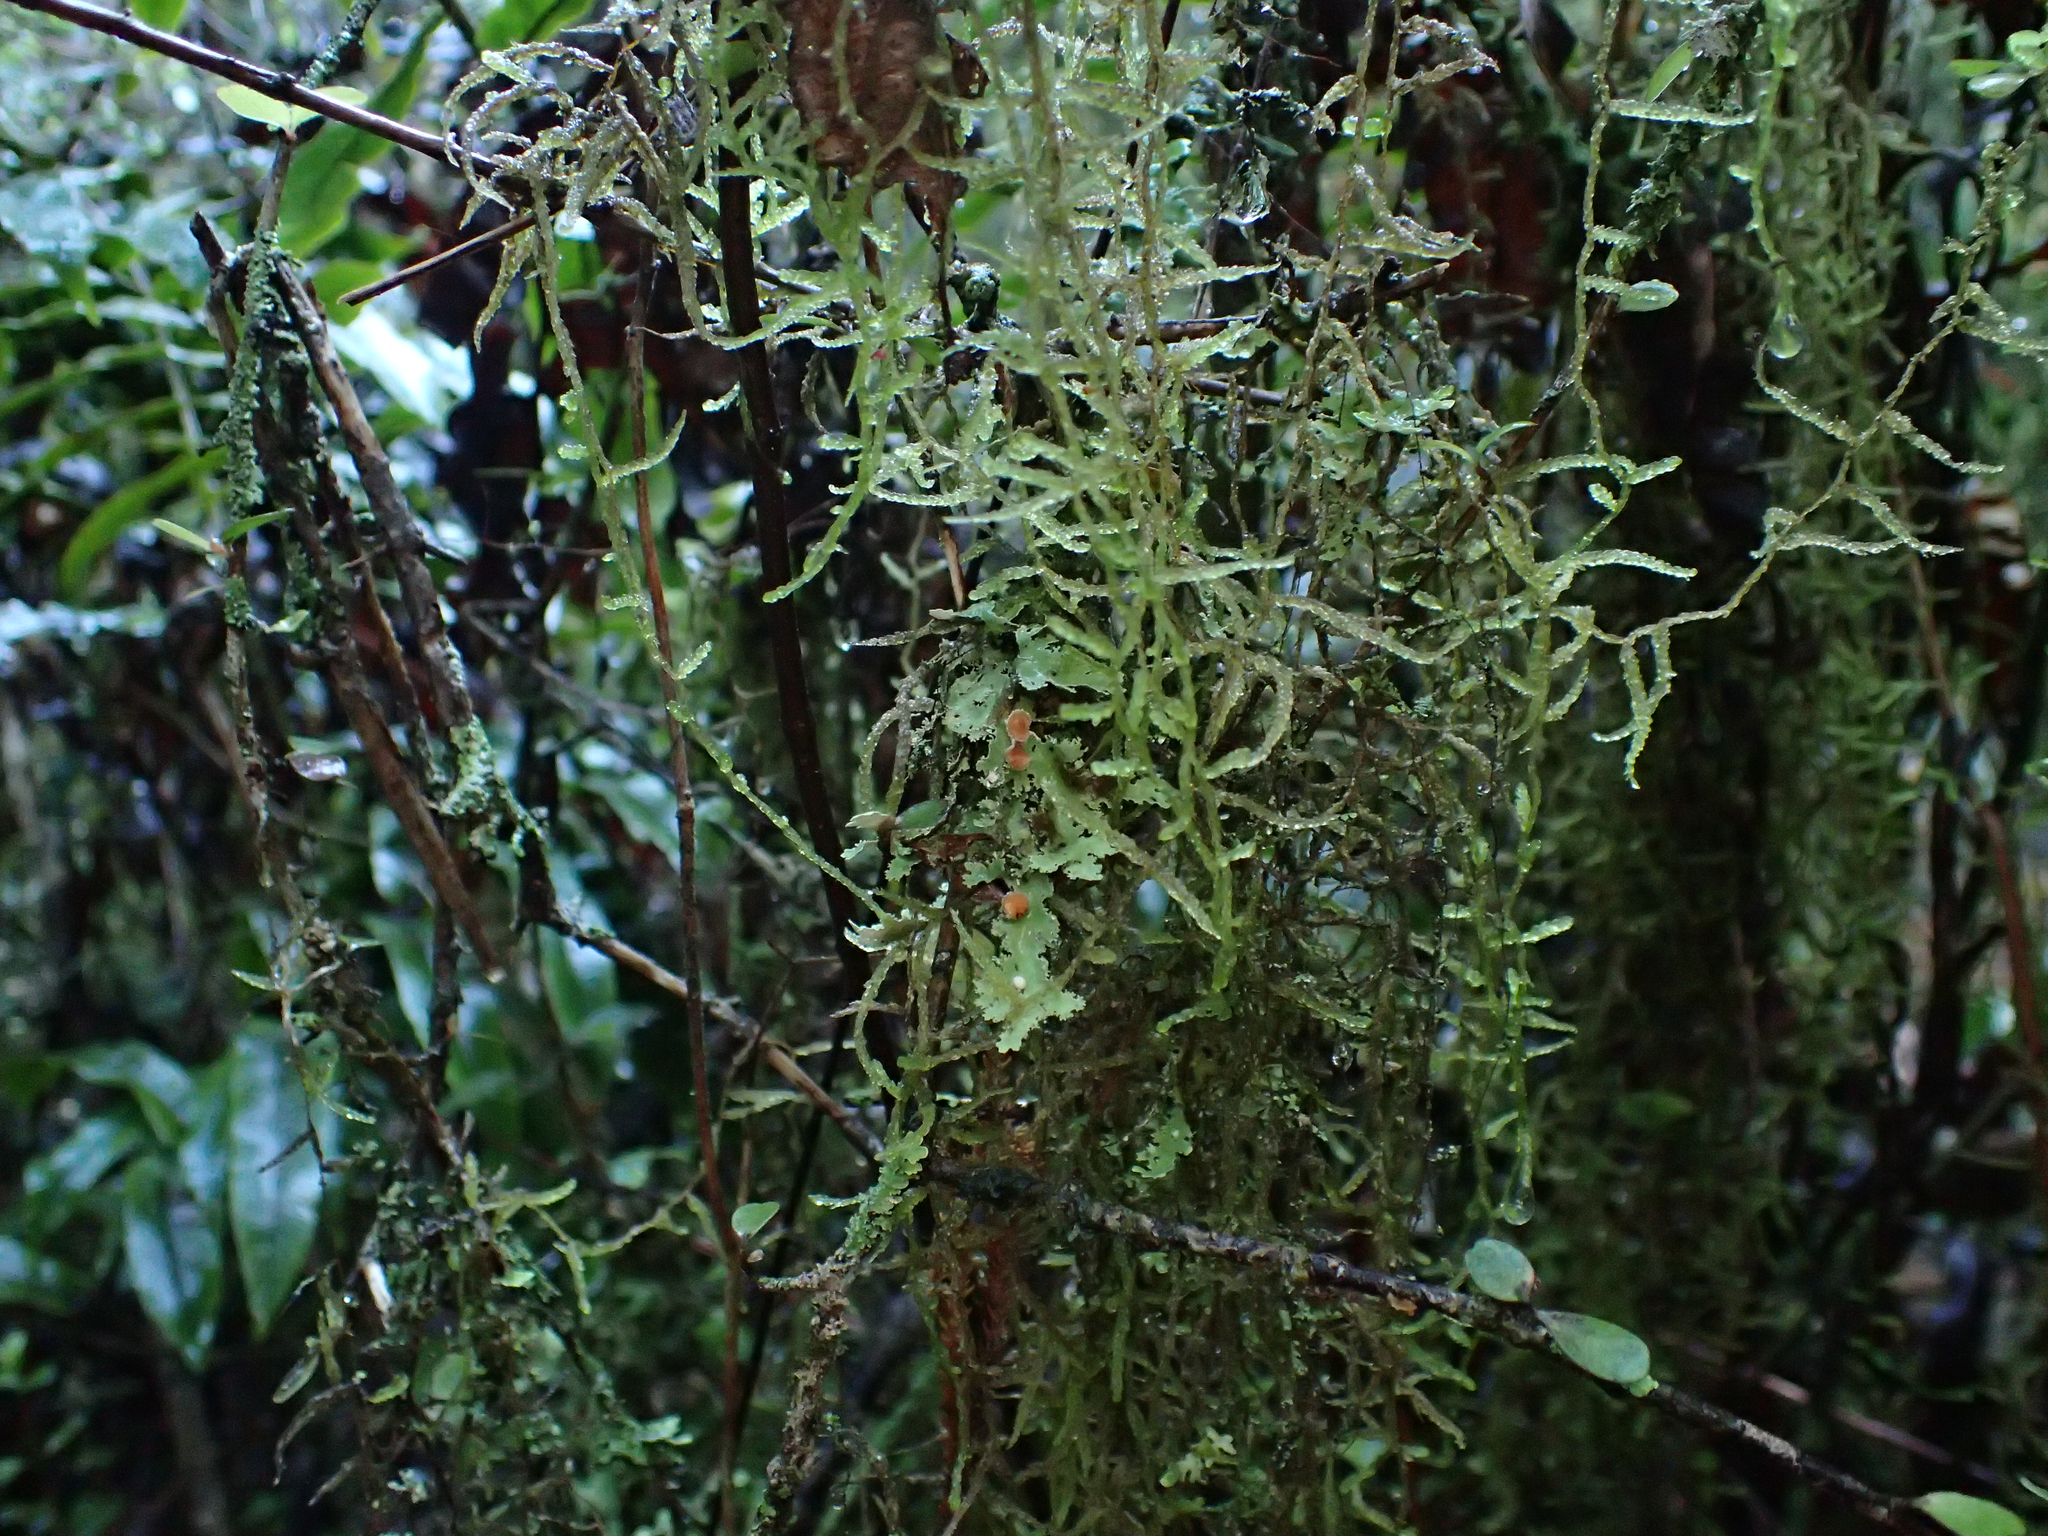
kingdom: Plantae
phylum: Bryophyta
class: Bryopsida
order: Hypnales
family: Lembophyllaceae
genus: Weymouthia
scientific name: Weymouthia mollis
